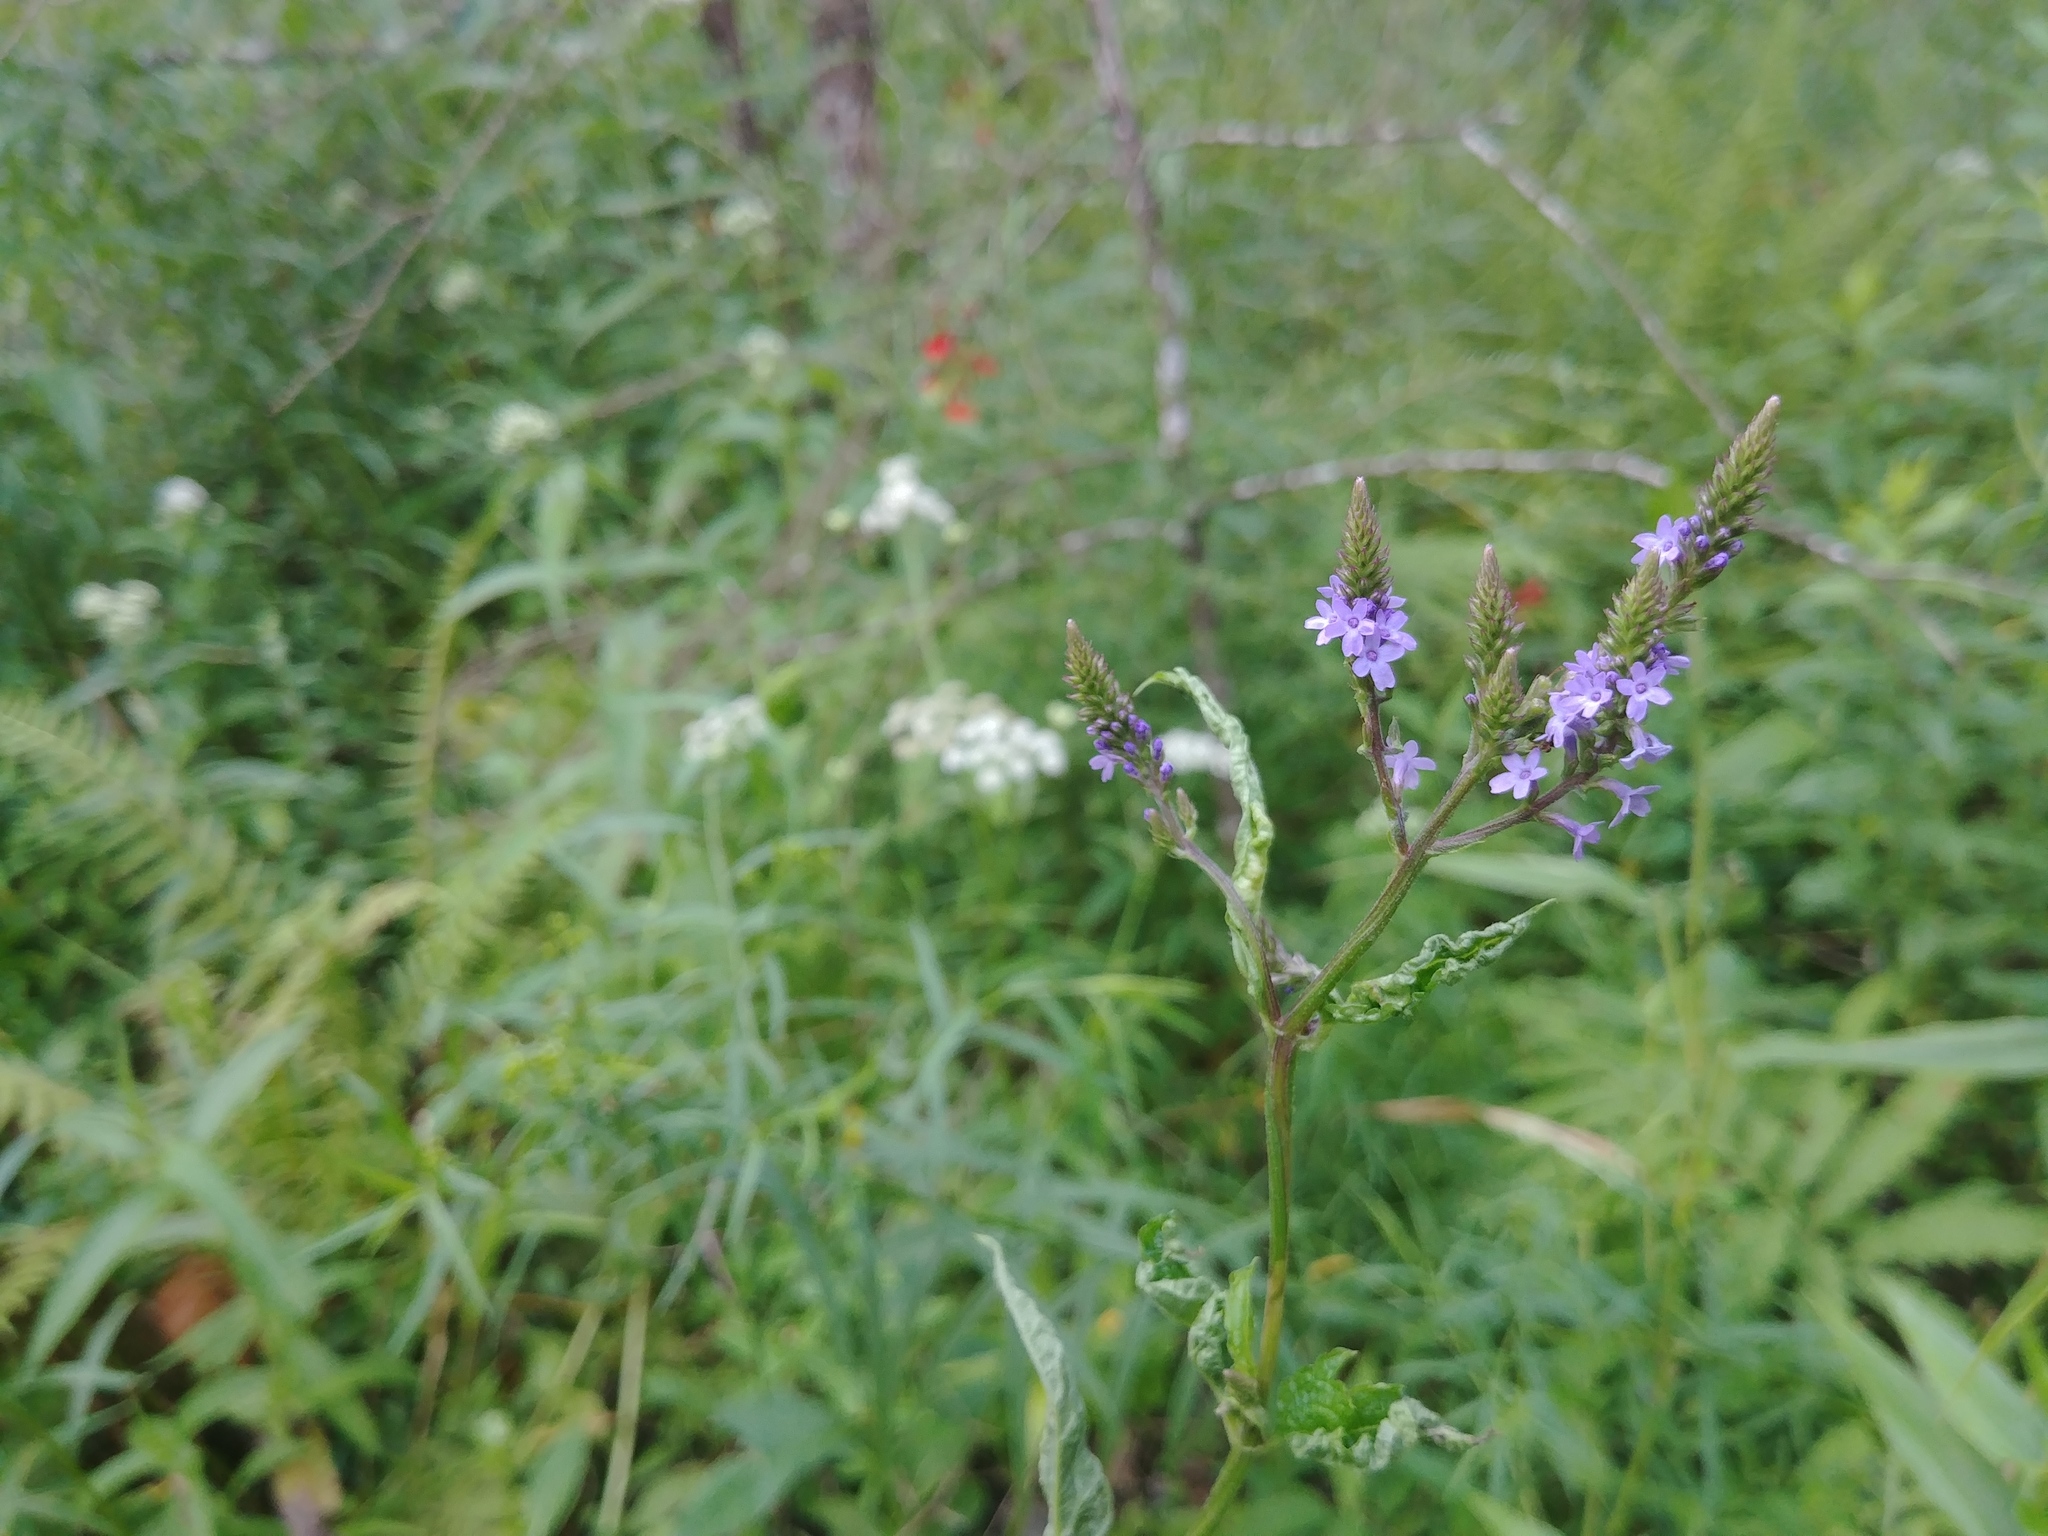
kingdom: Plantae
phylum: Tracheophyta
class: Magnoliopsida
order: Lamiales
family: Verbenaceae
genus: Verbena
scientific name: Verbena hastata
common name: American blue vervain
